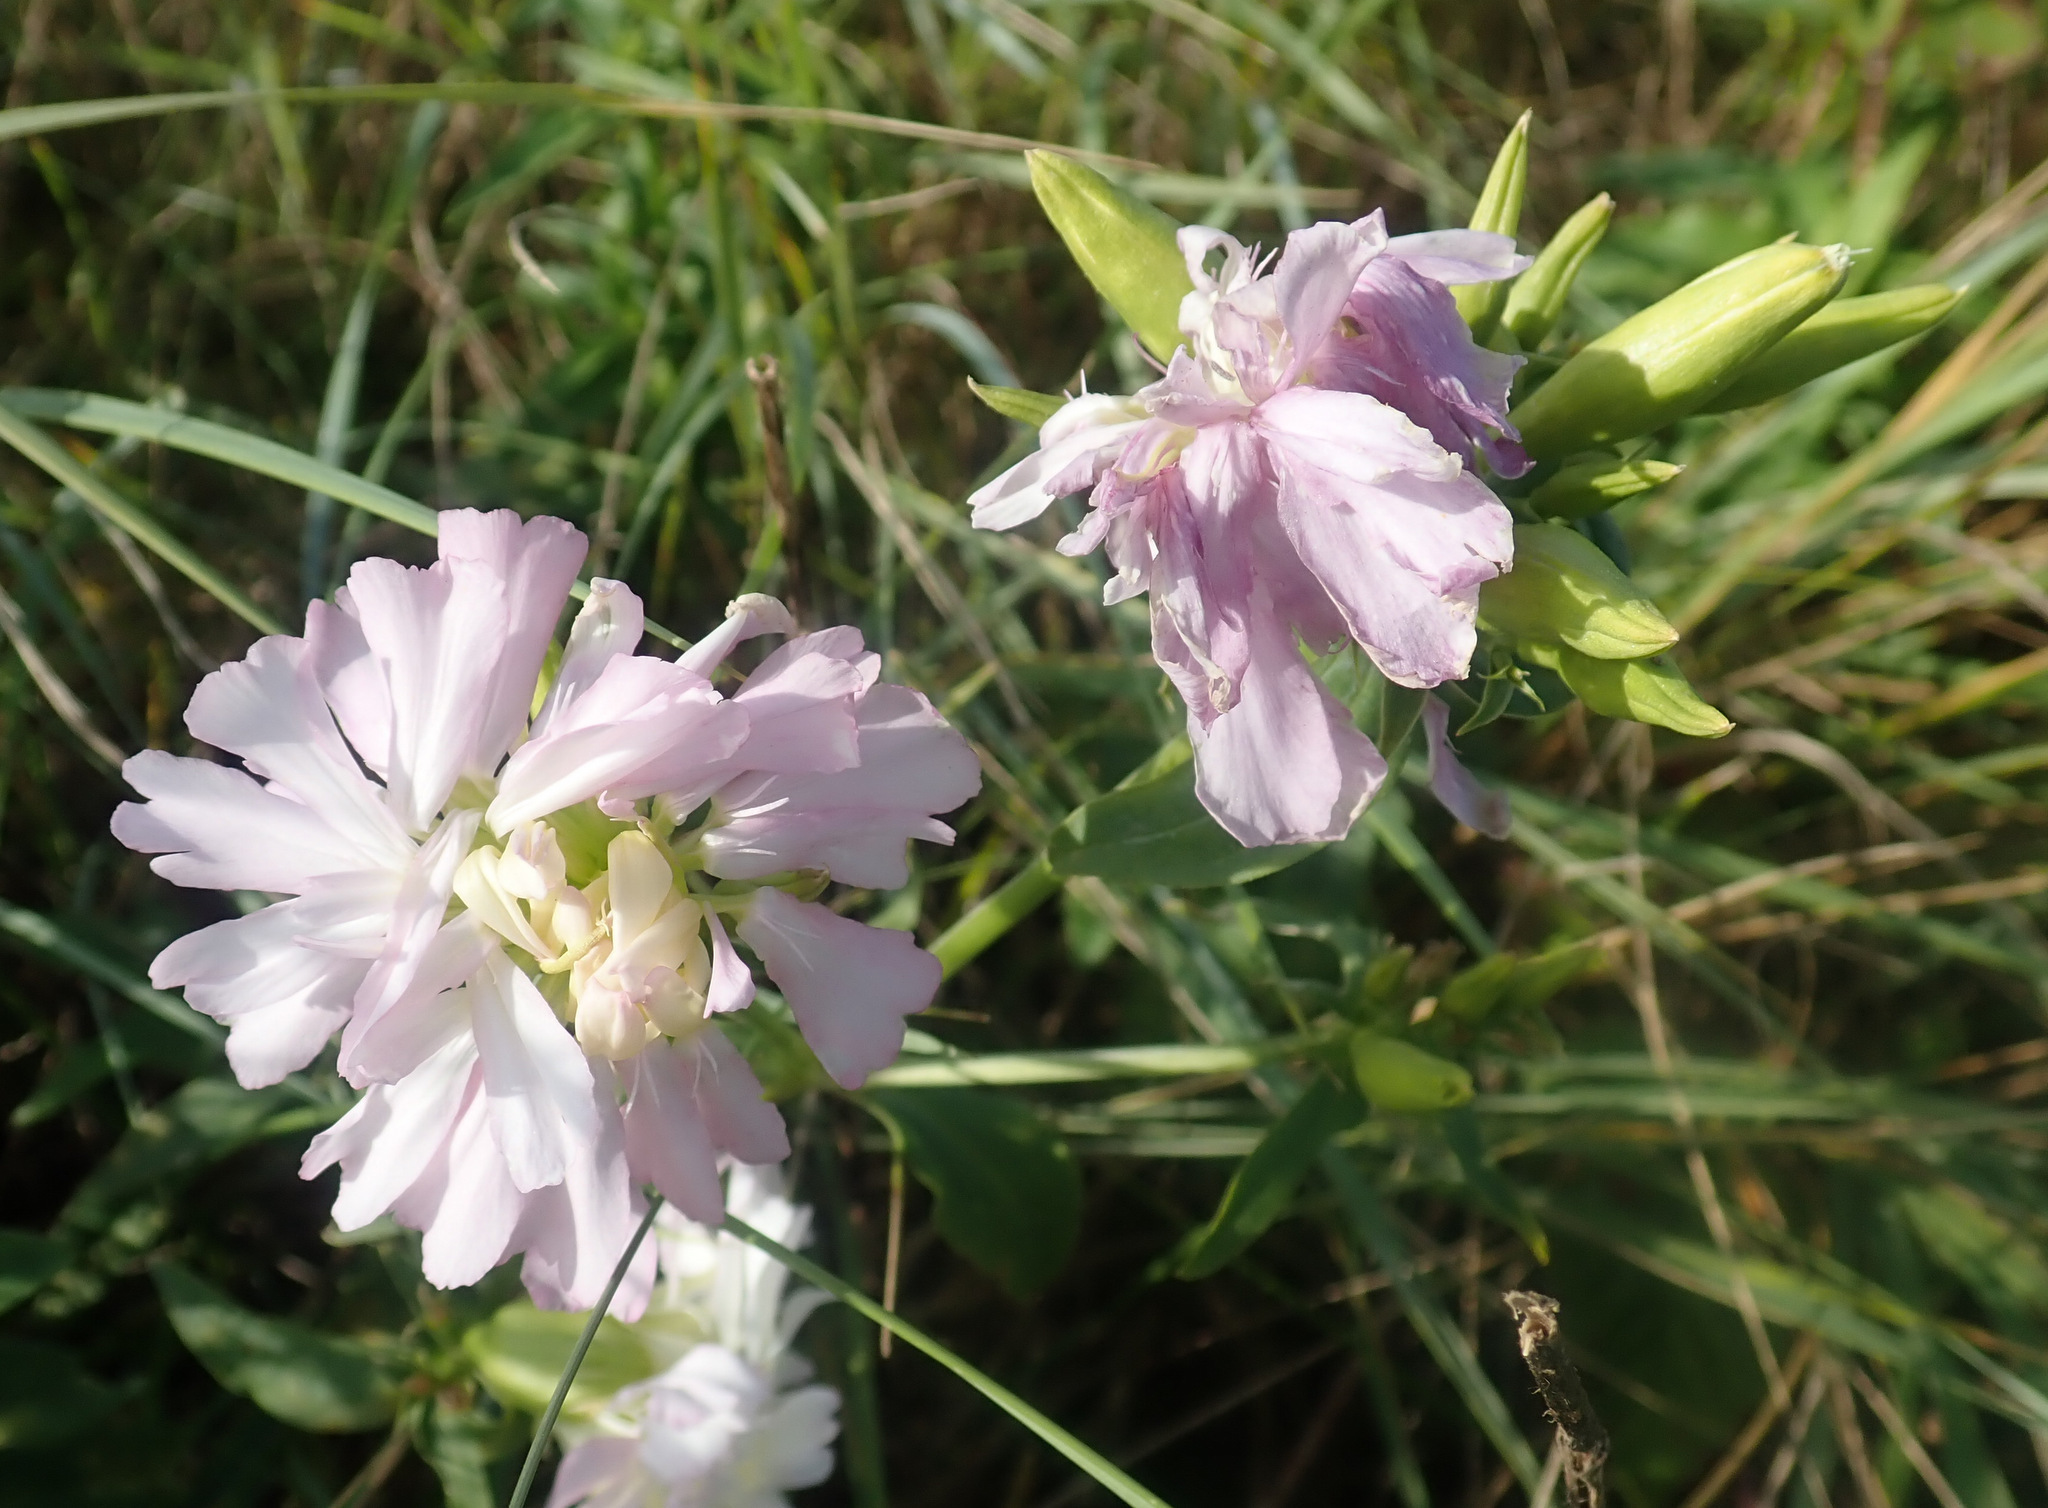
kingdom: Plantae
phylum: Tracheophyta
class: Magnoliopsida
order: Caryophyllales
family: Caryophyllaceae
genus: Saponaria
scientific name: Saponaria officinalis
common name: Soapwort
